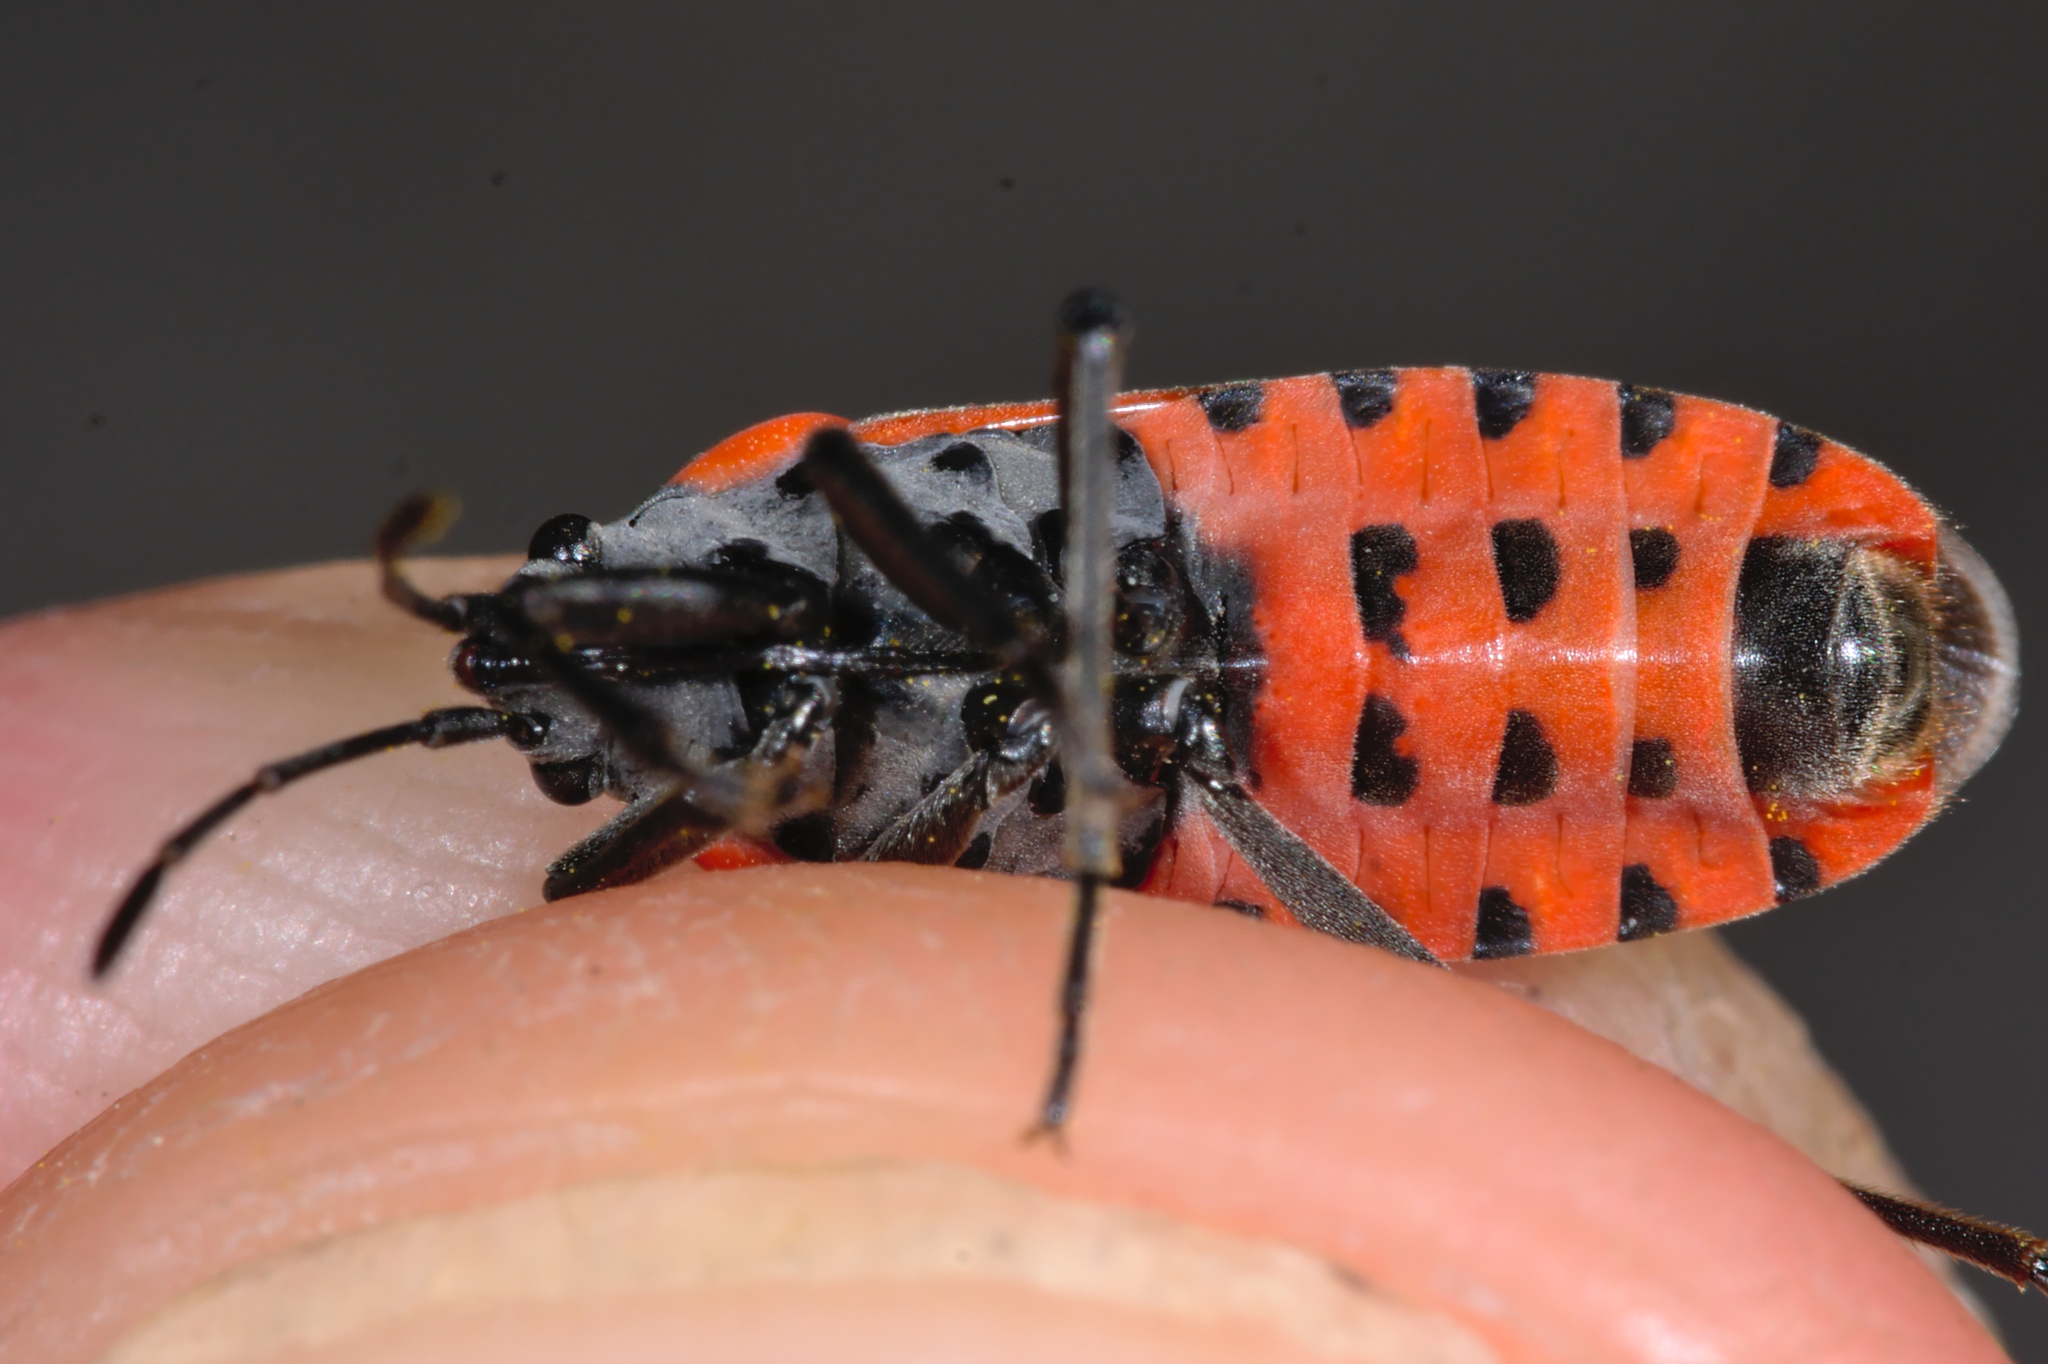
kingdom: Animalia
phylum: Arthropoda
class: Insecta
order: Hemiptera
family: Lygaeidae
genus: Lygaeus
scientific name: Lygaeus equestris
